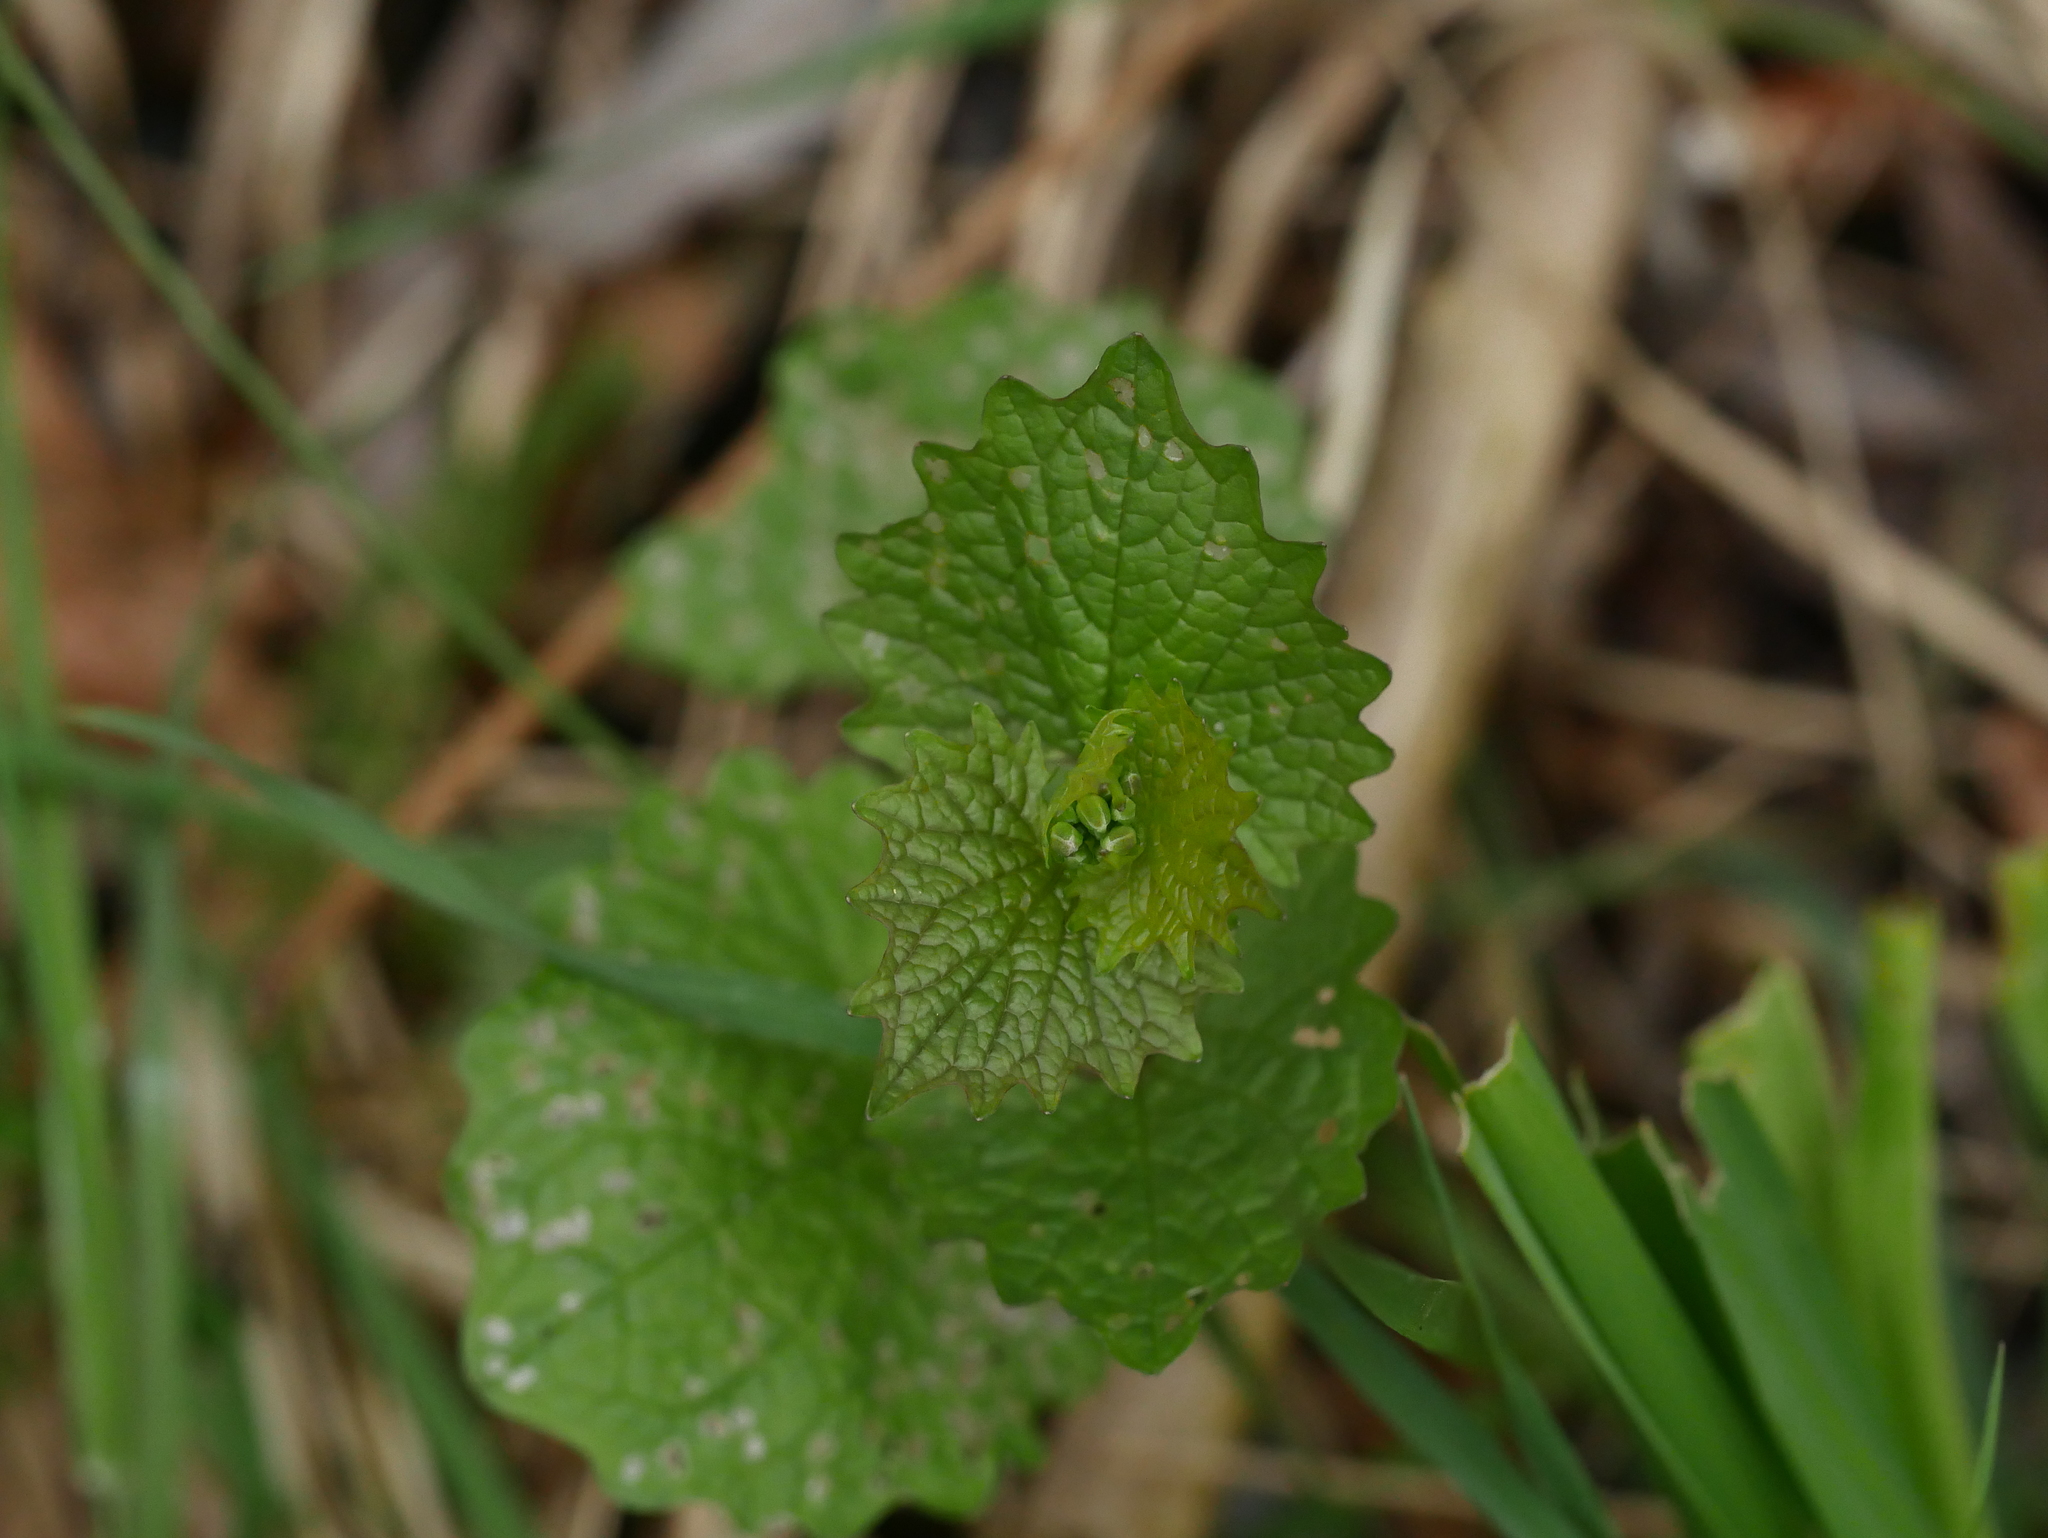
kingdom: Plantae
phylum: Tracheophyta
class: Magnoliopsida
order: Brassicales
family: Brassicaceae
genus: Alliaria
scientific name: Alliaria petiolata
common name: Garlic mustard
